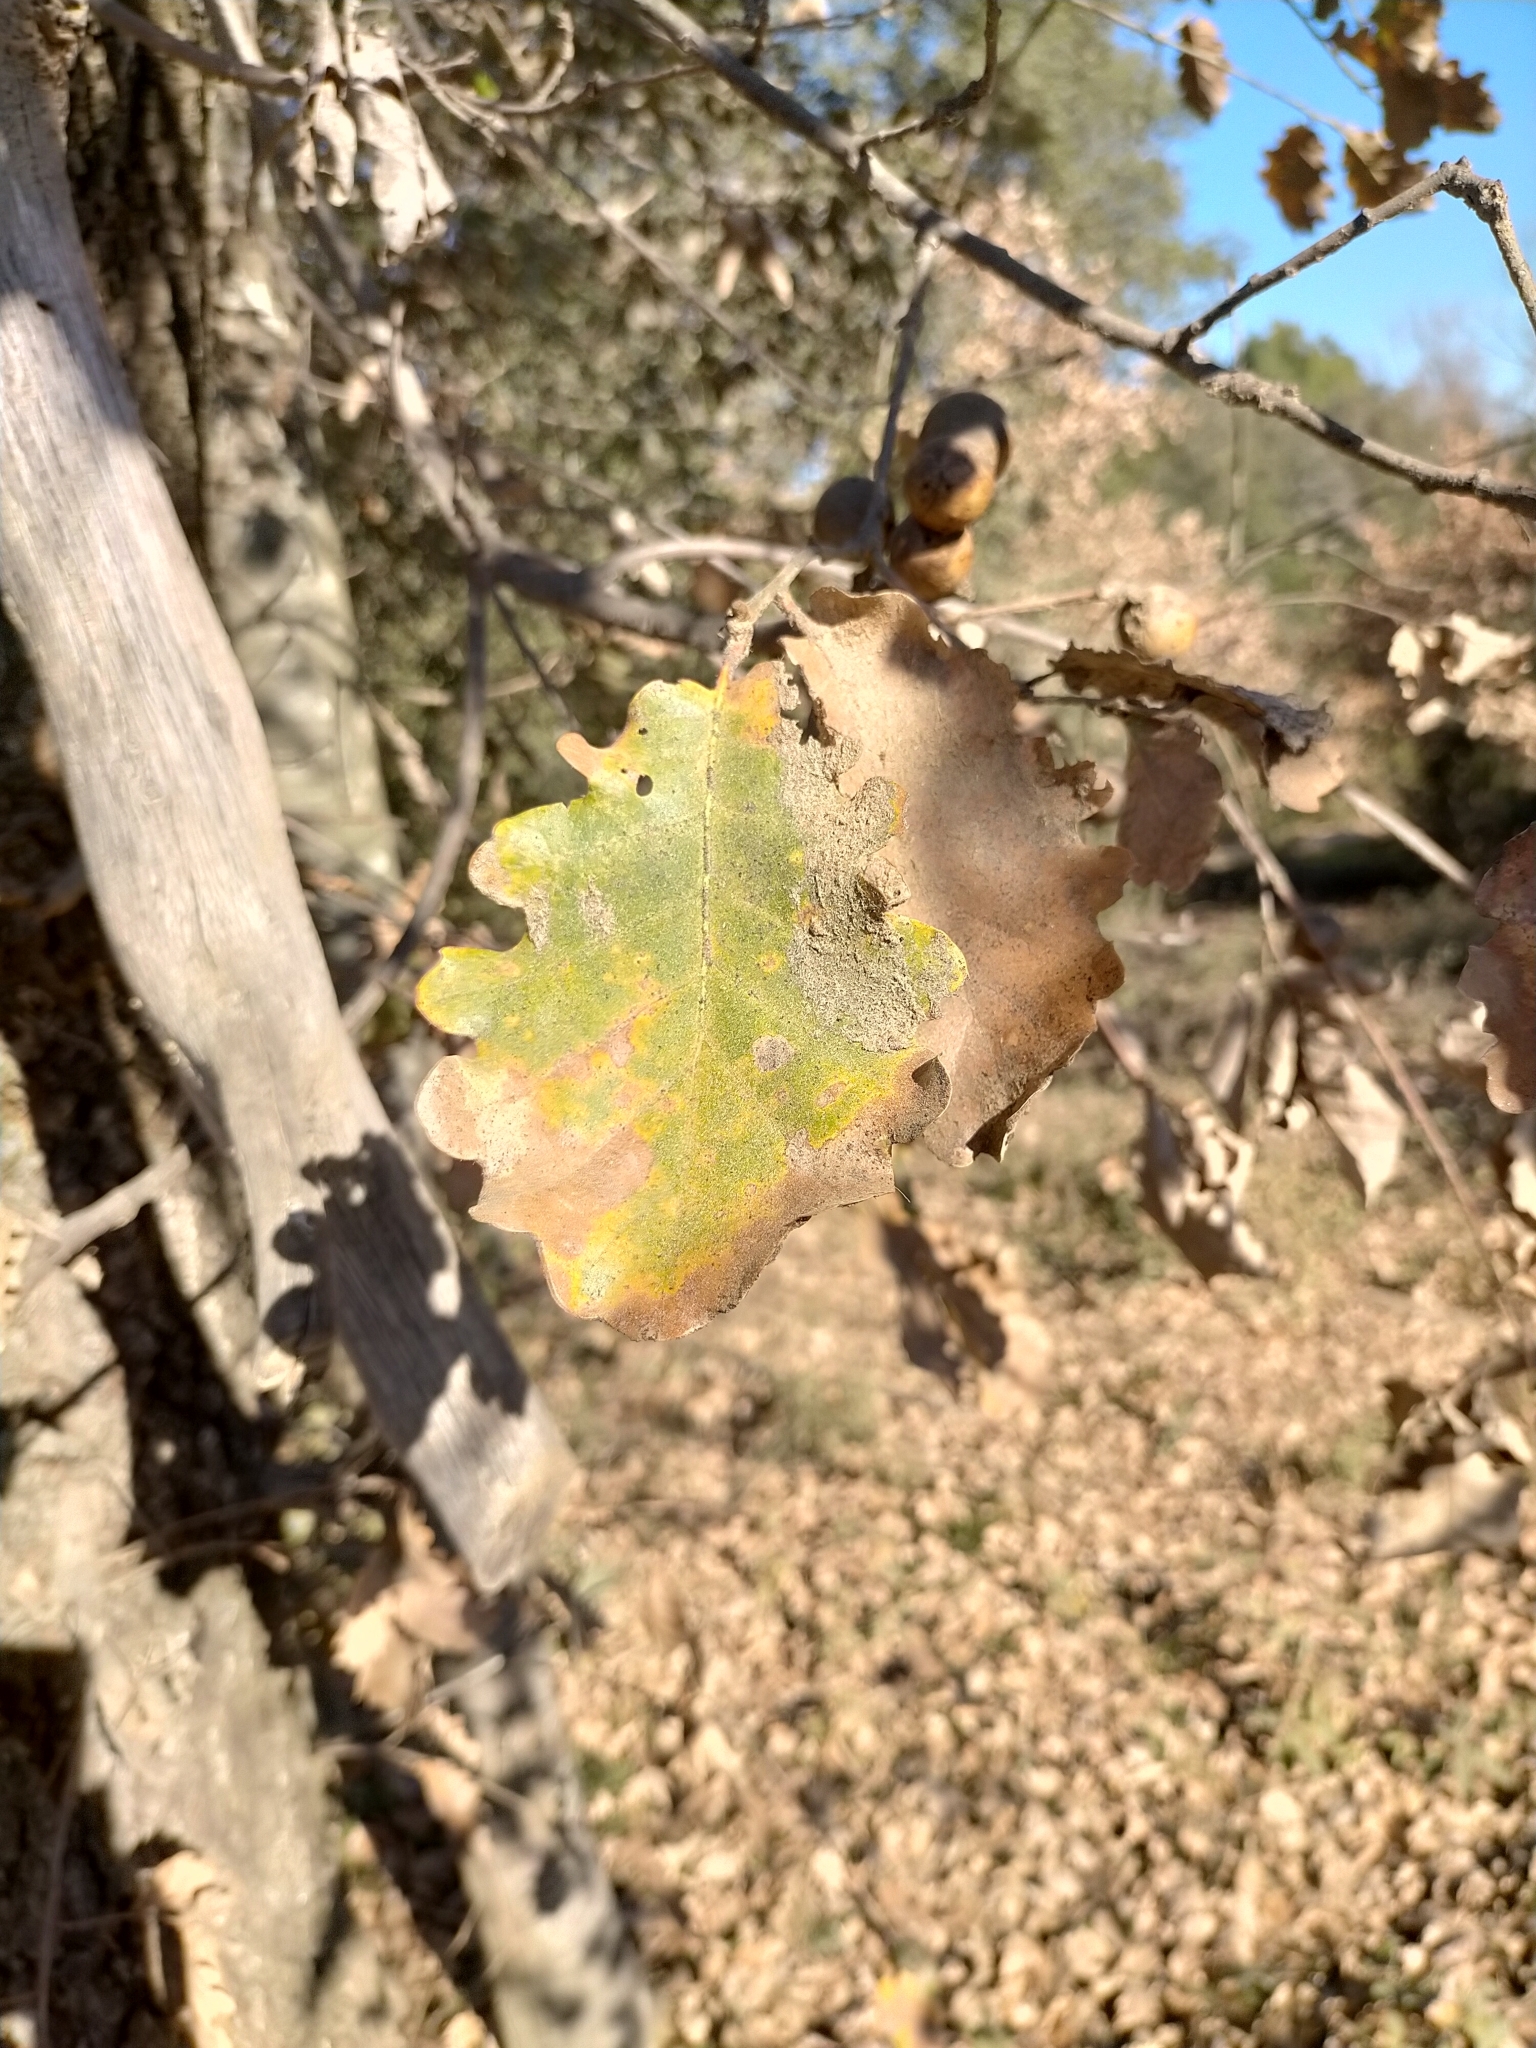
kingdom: Plantae
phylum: Tracheophyta
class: Magnoliopsida
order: Fagales
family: Fagaceae
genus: Quercus
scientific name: Quercus pubescens
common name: Downy oak
